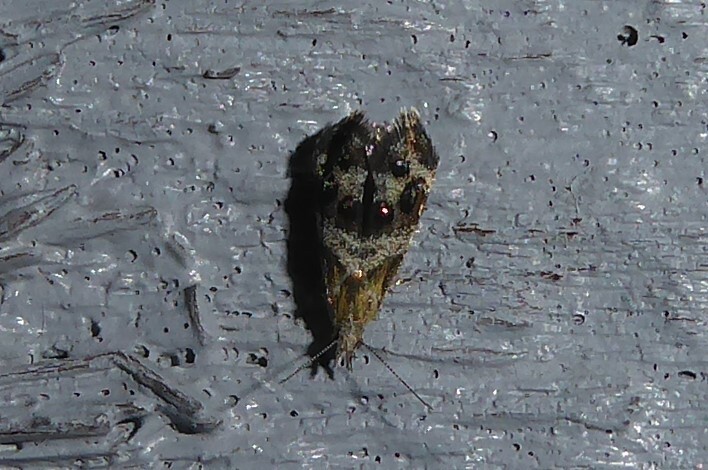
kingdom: Animalia
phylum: Arthropoda
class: Insecta
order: Lepidoptera
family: Choreutidae
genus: Tebenna
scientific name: Tebenna micalis
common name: Vagrant twitcher
